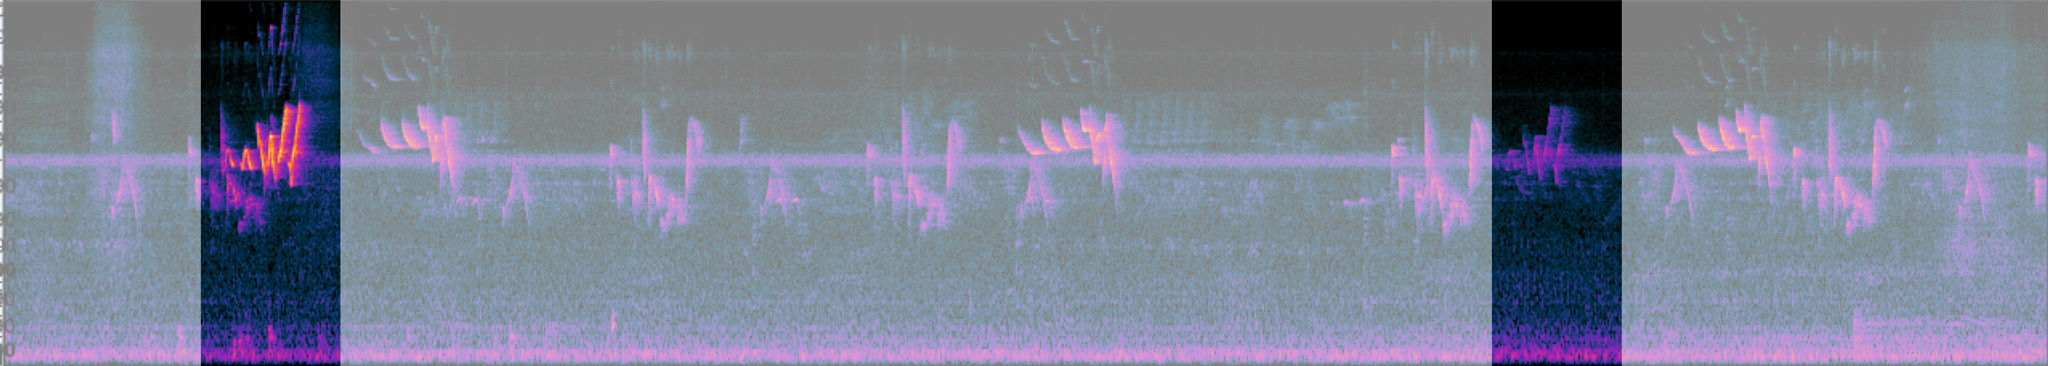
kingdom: Animalia
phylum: Chordata
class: Aves
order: Passeriformes
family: Parulidae
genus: Setophaga
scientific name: Setophaga citrina
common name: Hooded warbler
